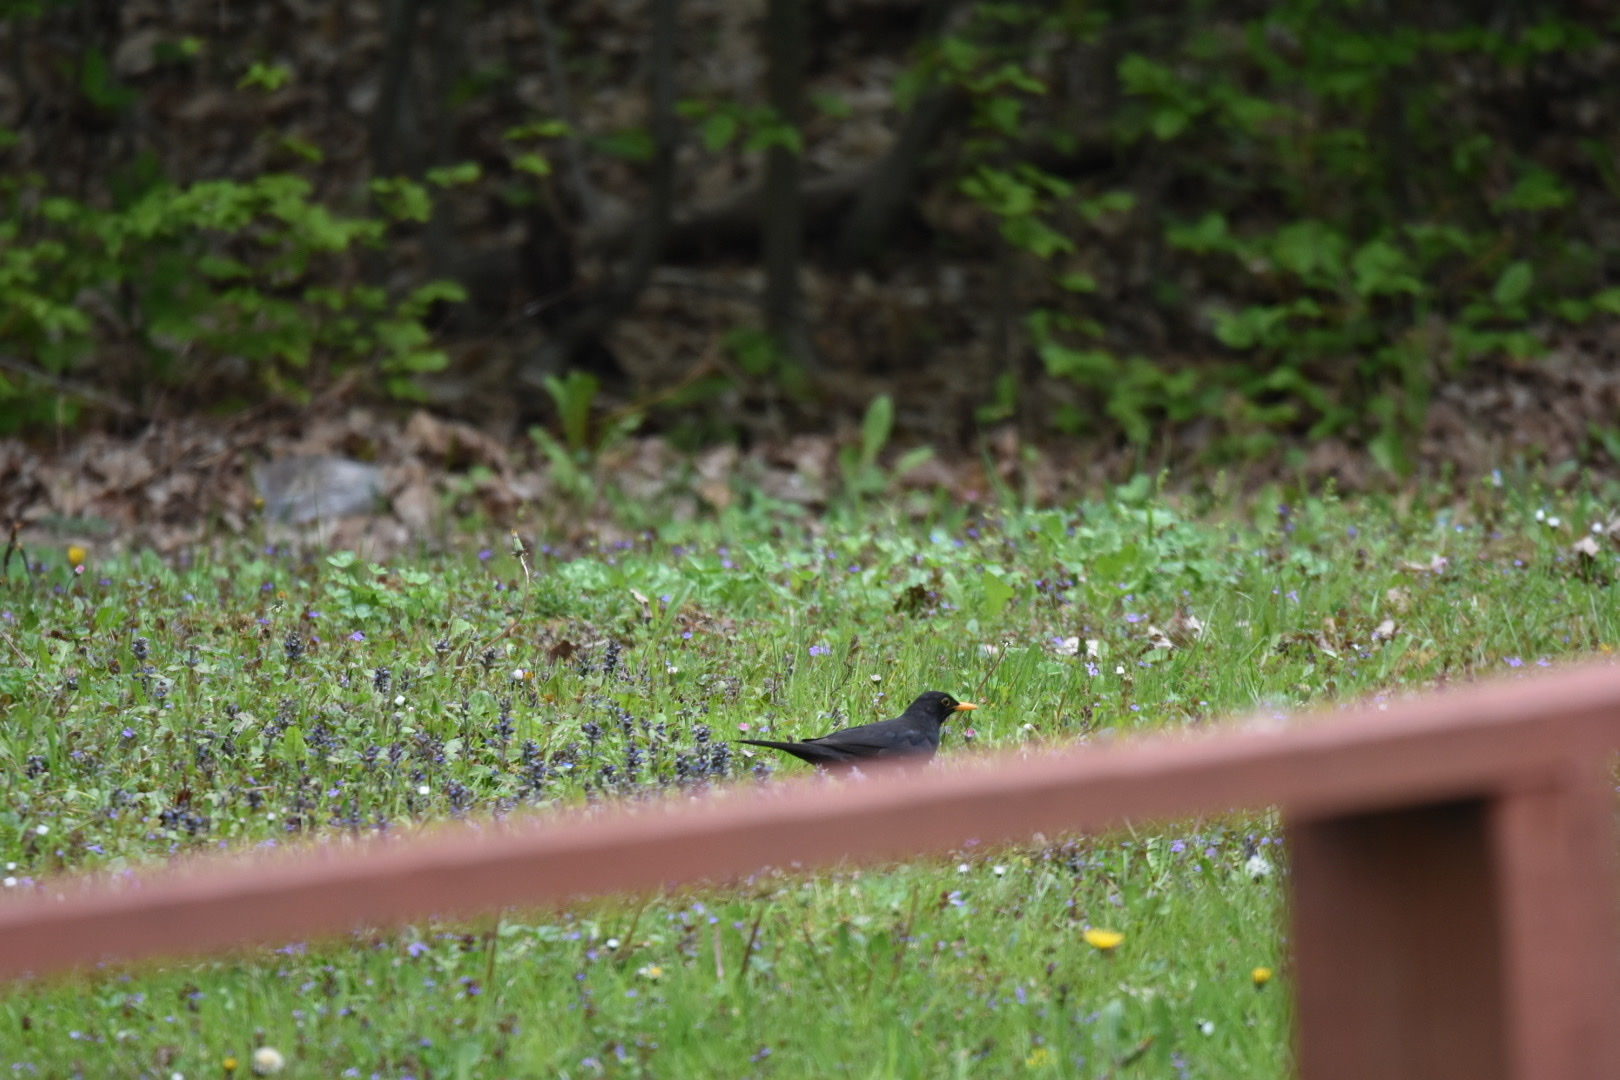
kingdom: Animalia
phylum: Chordata
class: Aves
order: Passeriformes
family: Turdidae
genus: Turdus
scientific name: Turdus merula
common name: Common blackbird
